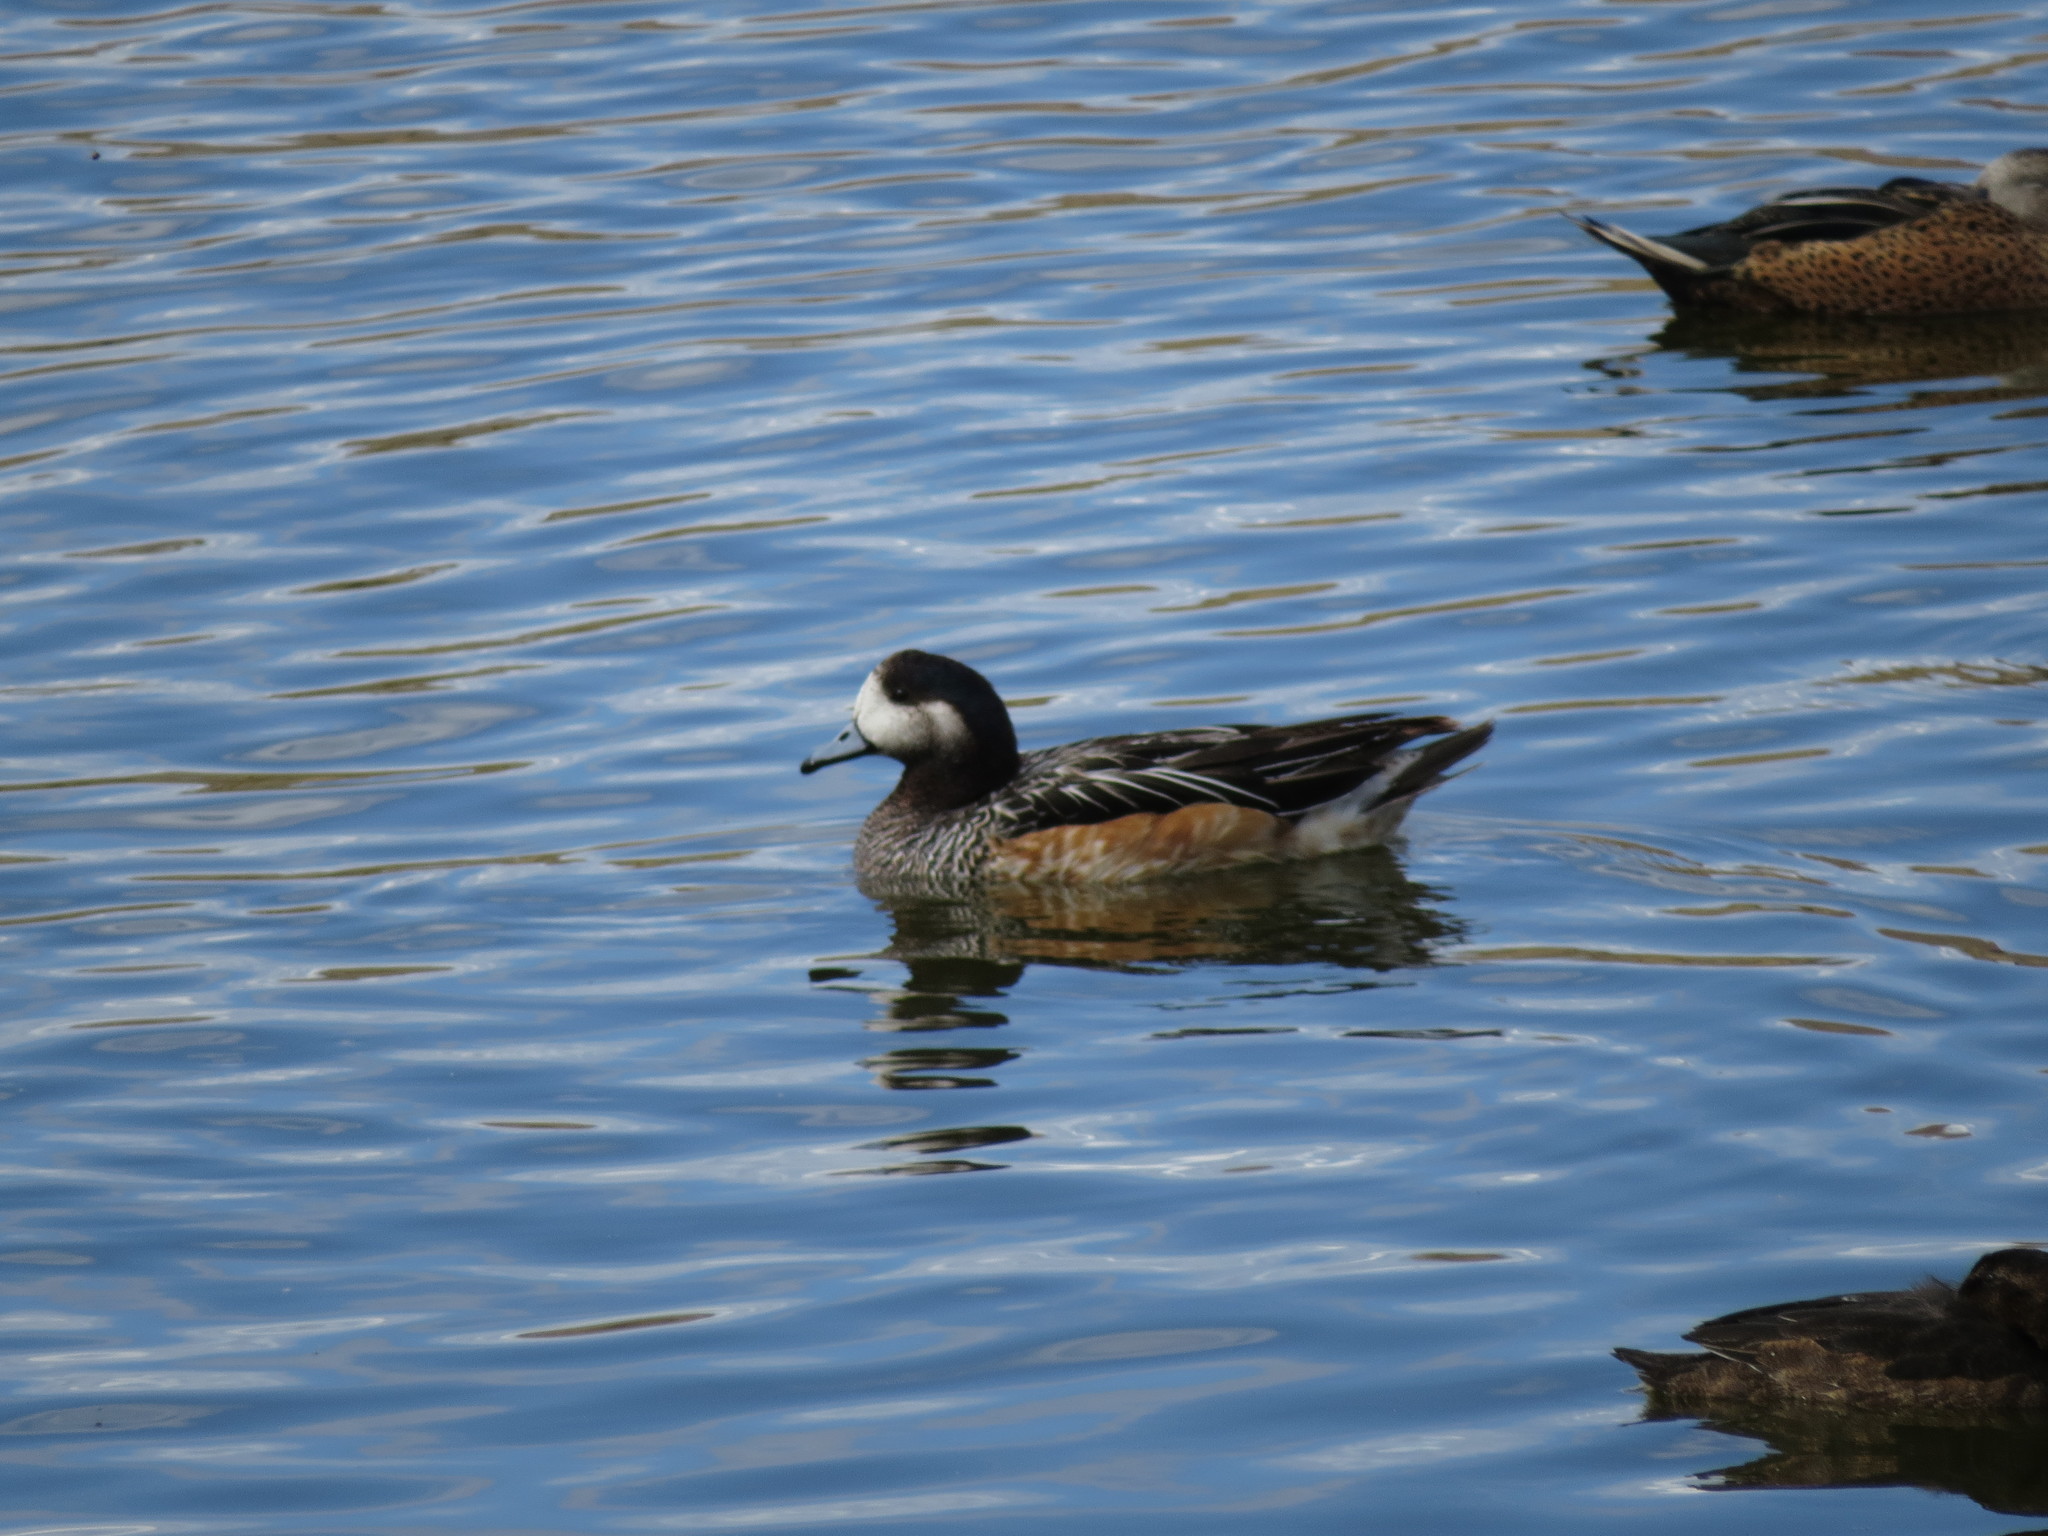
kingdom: Animalia
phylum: Chordata
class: Aves
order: Anseriformes
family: Anatidae
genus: Mareca
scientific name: Mareca sibilatrix
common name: Chiloe wigeon
